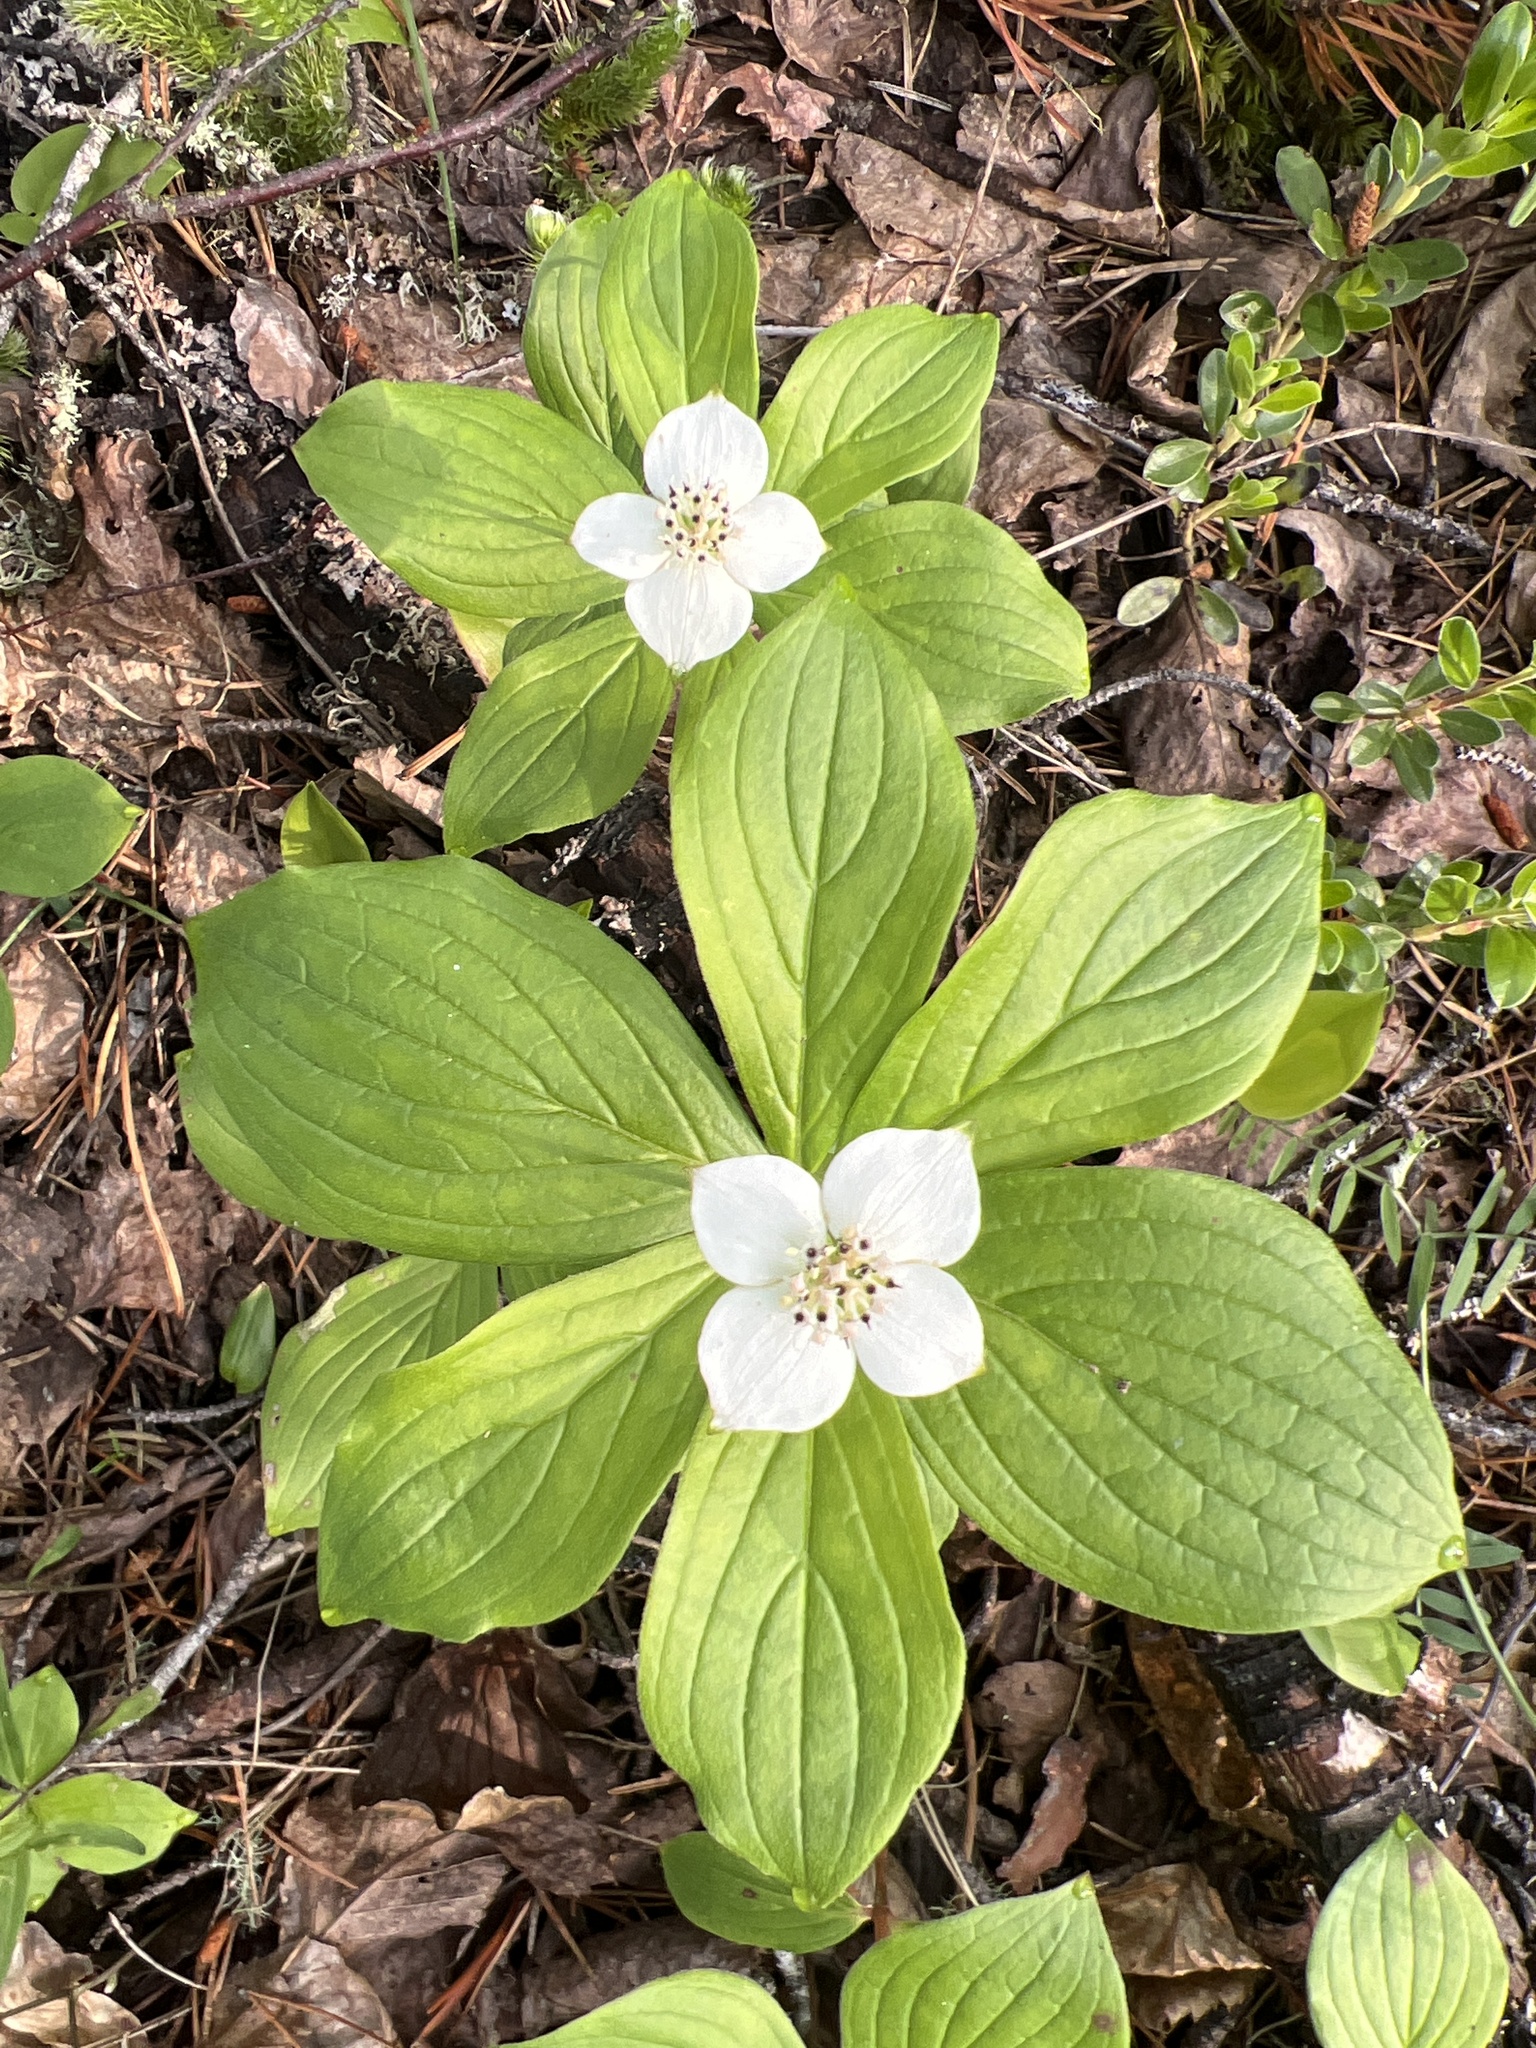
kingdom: Plantae
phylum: Tracheophyta
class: Magnoliopsida
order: Cornales
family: Cornaceae
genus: Cornus
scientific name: Cornus canadensis
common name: Creeping dogwood
